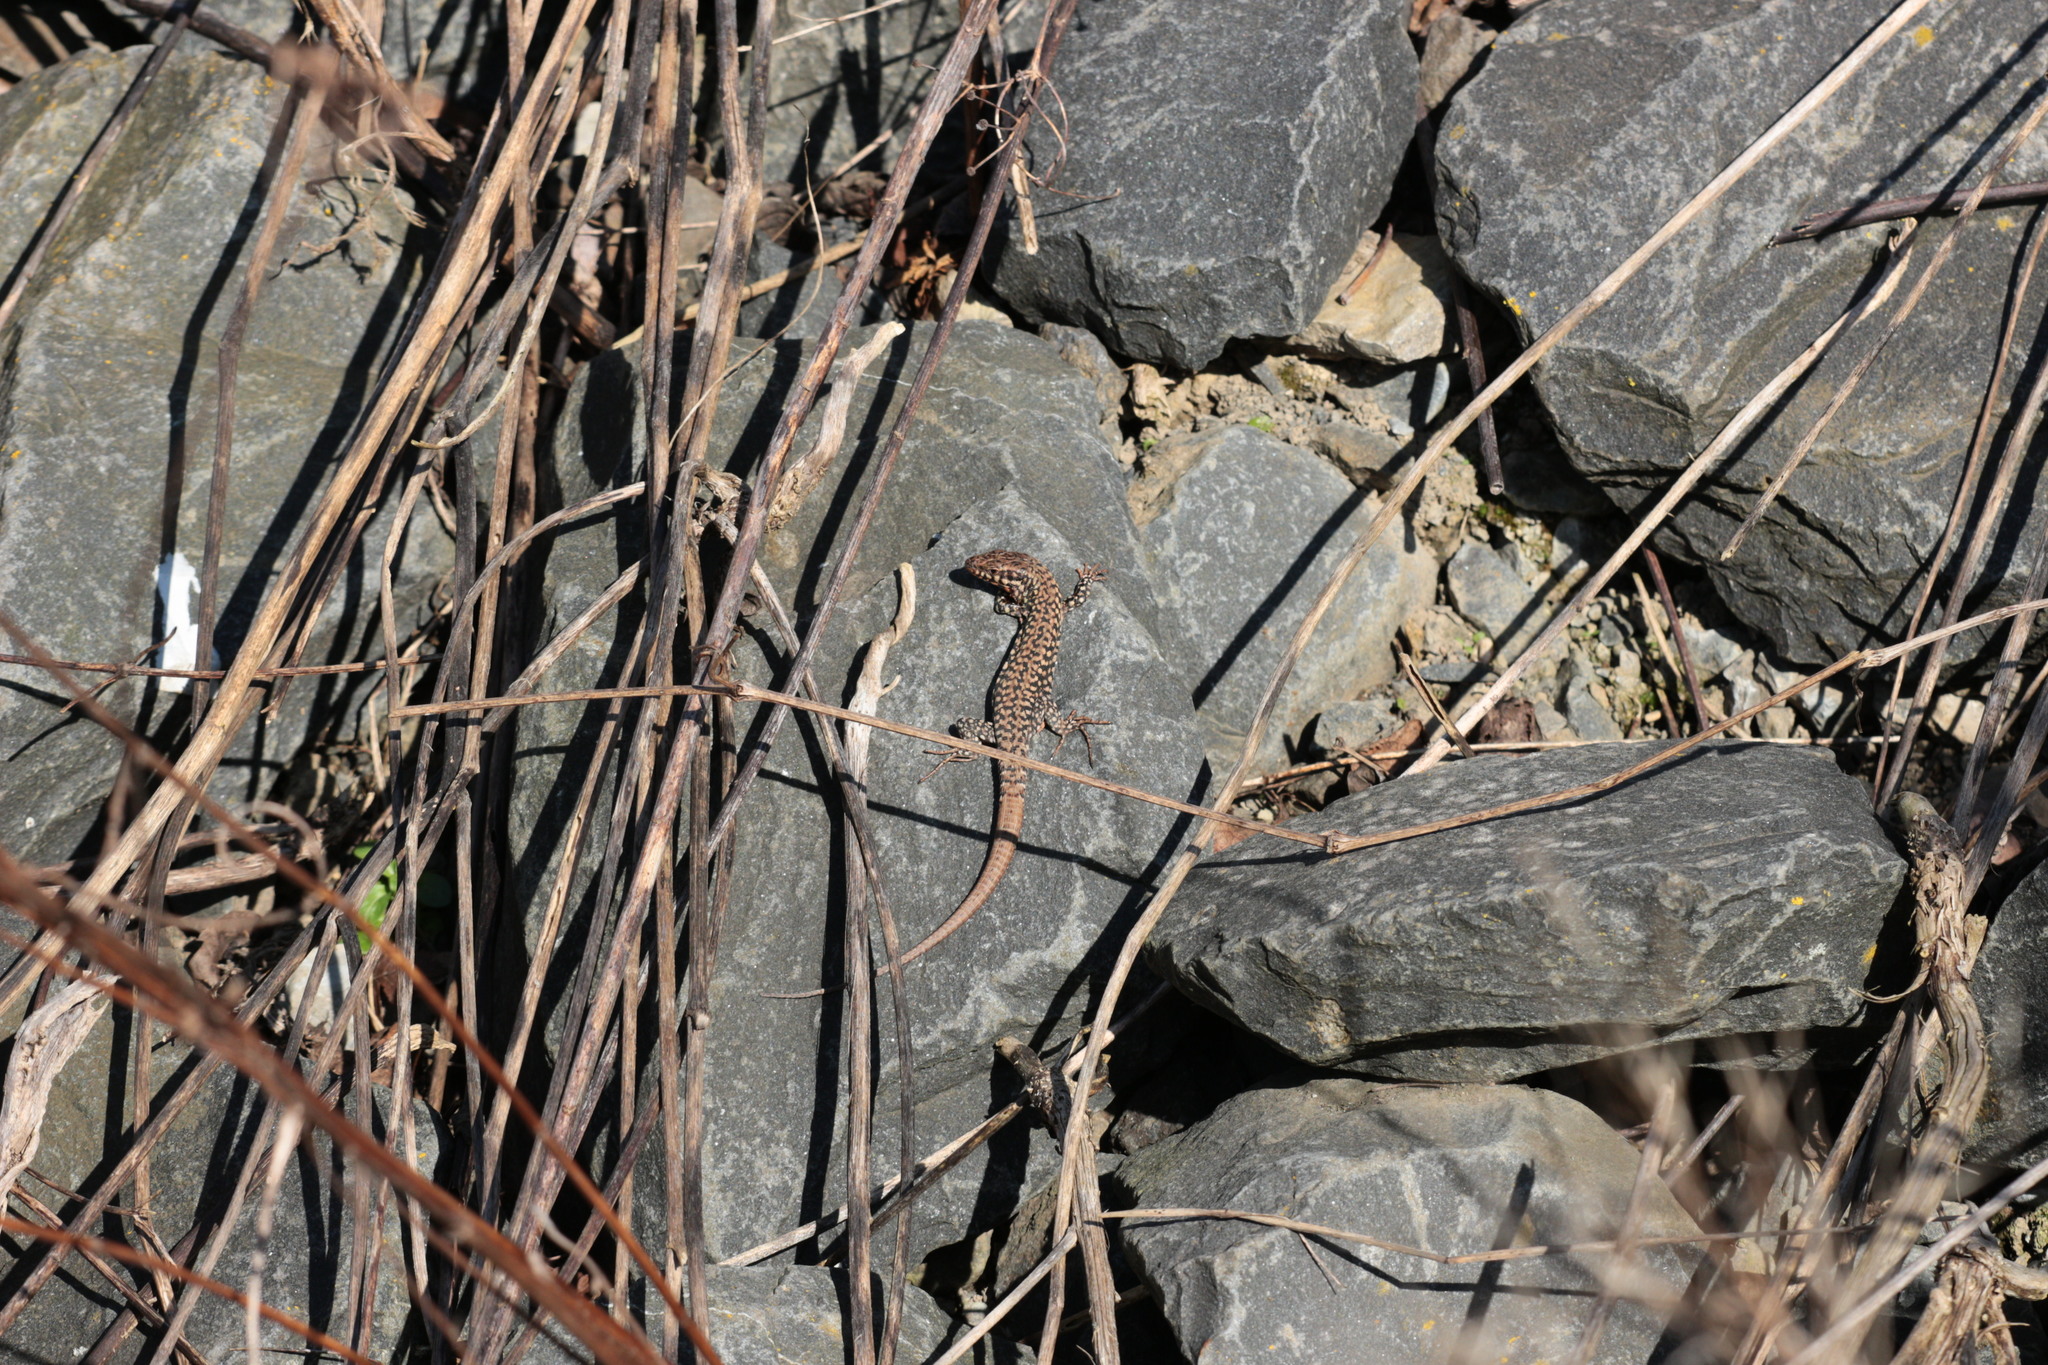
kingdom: Animalia
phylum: Chordata
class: Squamata
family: Lacertidae
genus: Podarcis
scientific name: Podarcis muralis
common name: Common wall lizard
